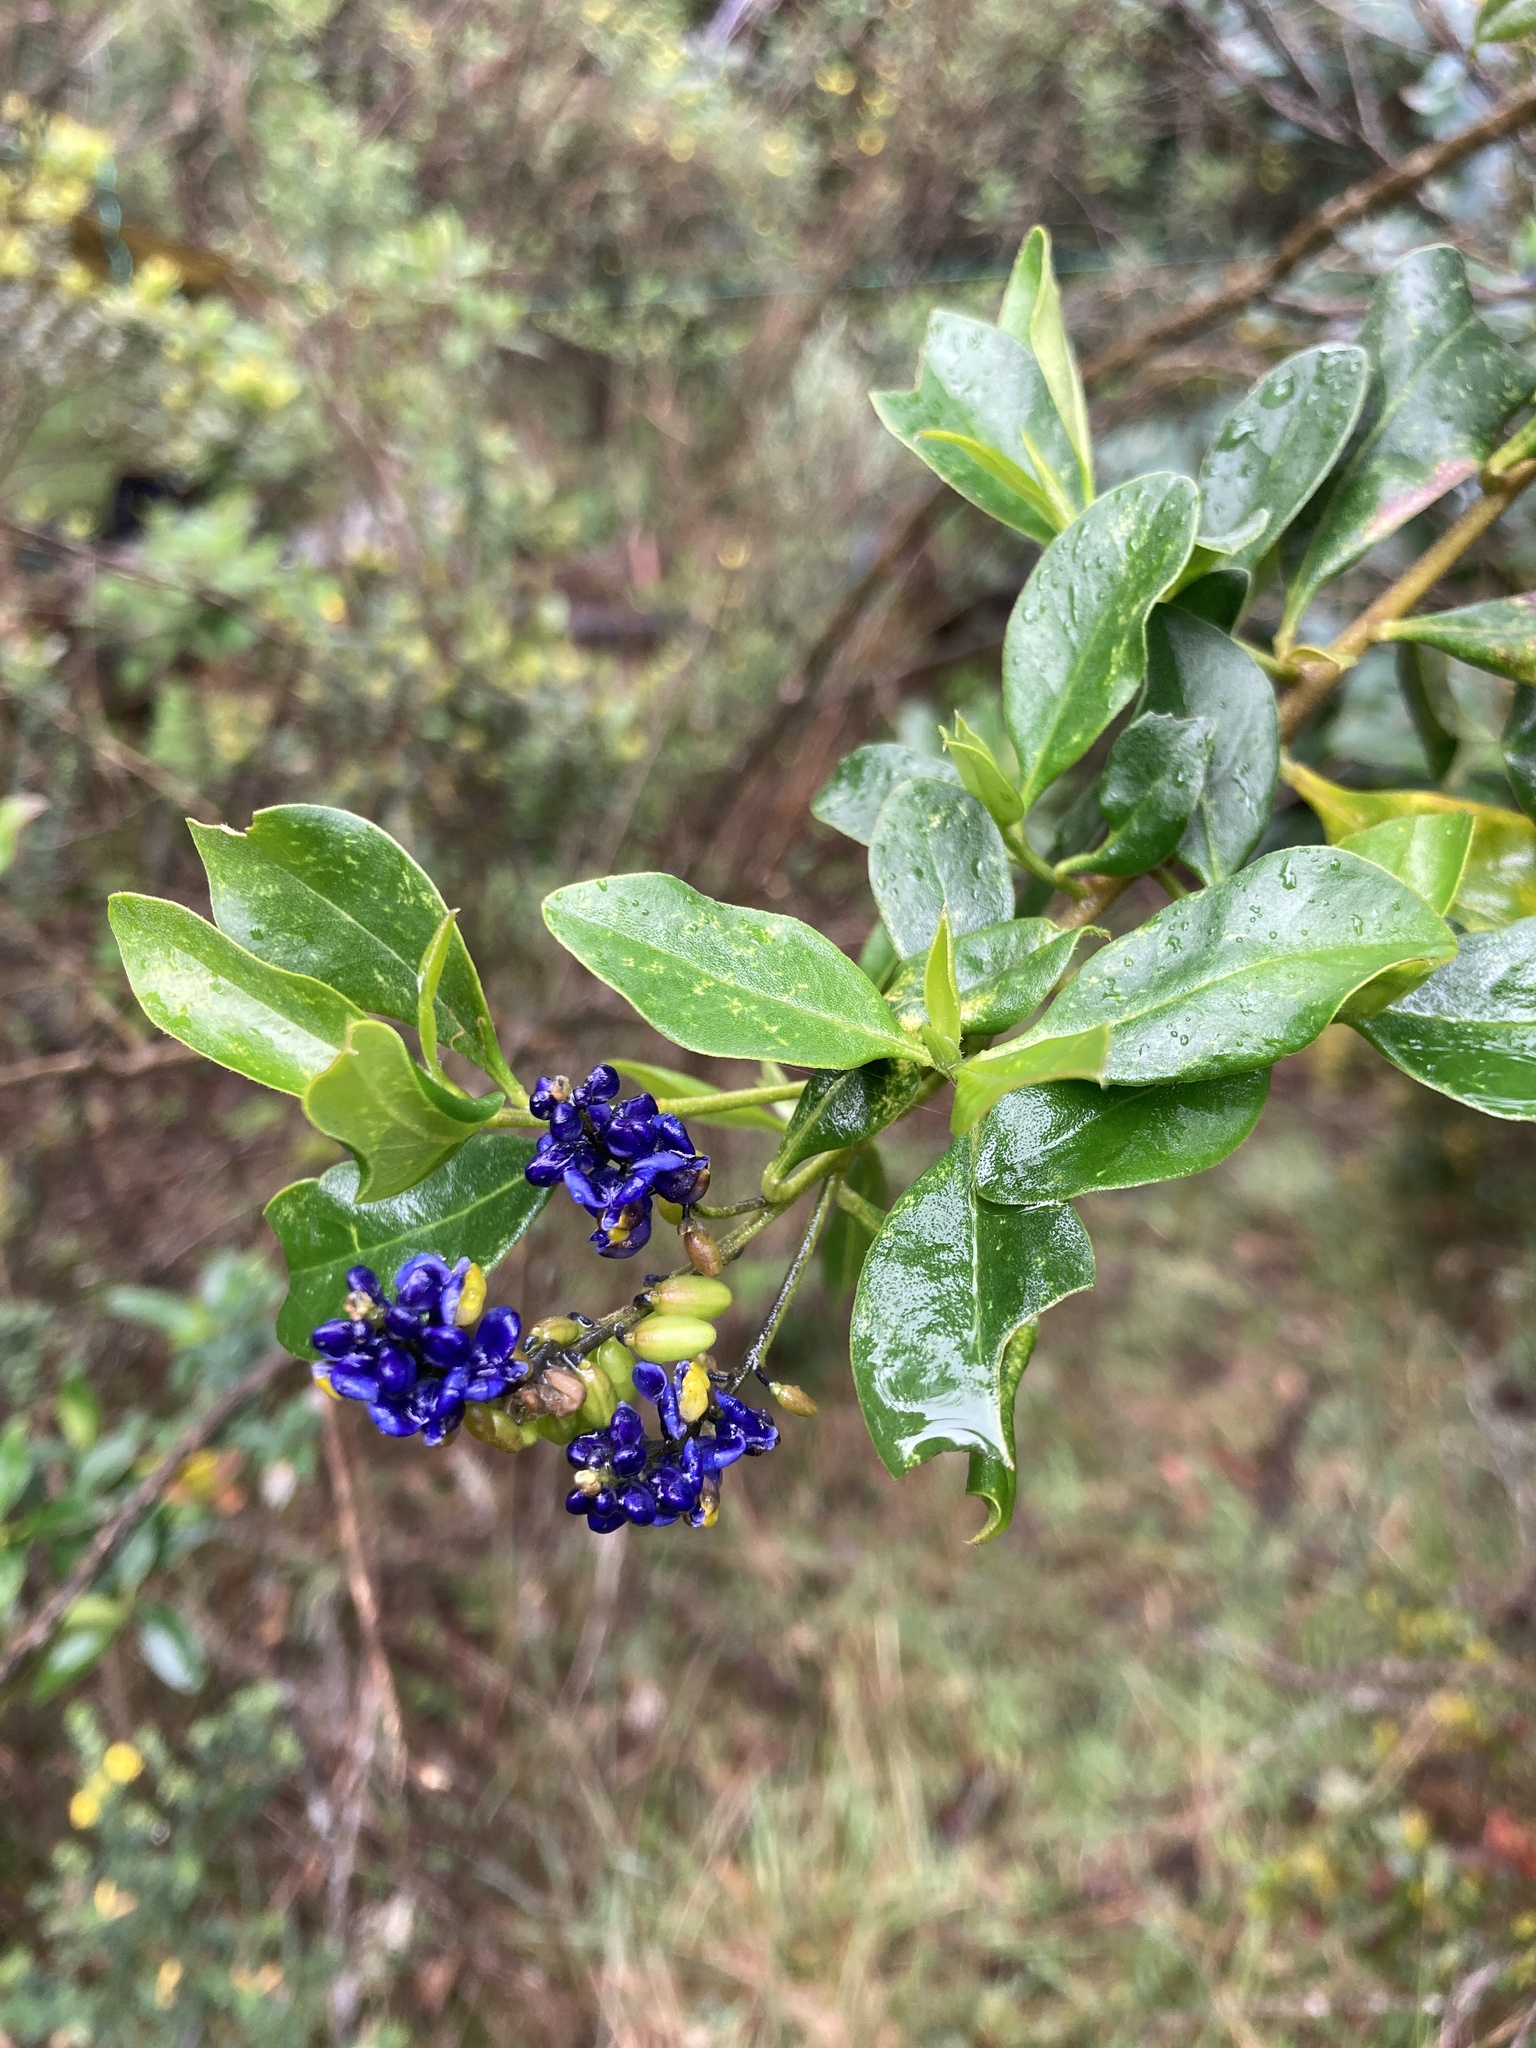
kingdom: Plantae
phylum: Tracheophyta
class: Magnoliopsida
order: Fabales
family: Polygalaceae
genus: Monnina
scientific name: Monnina aestuans
